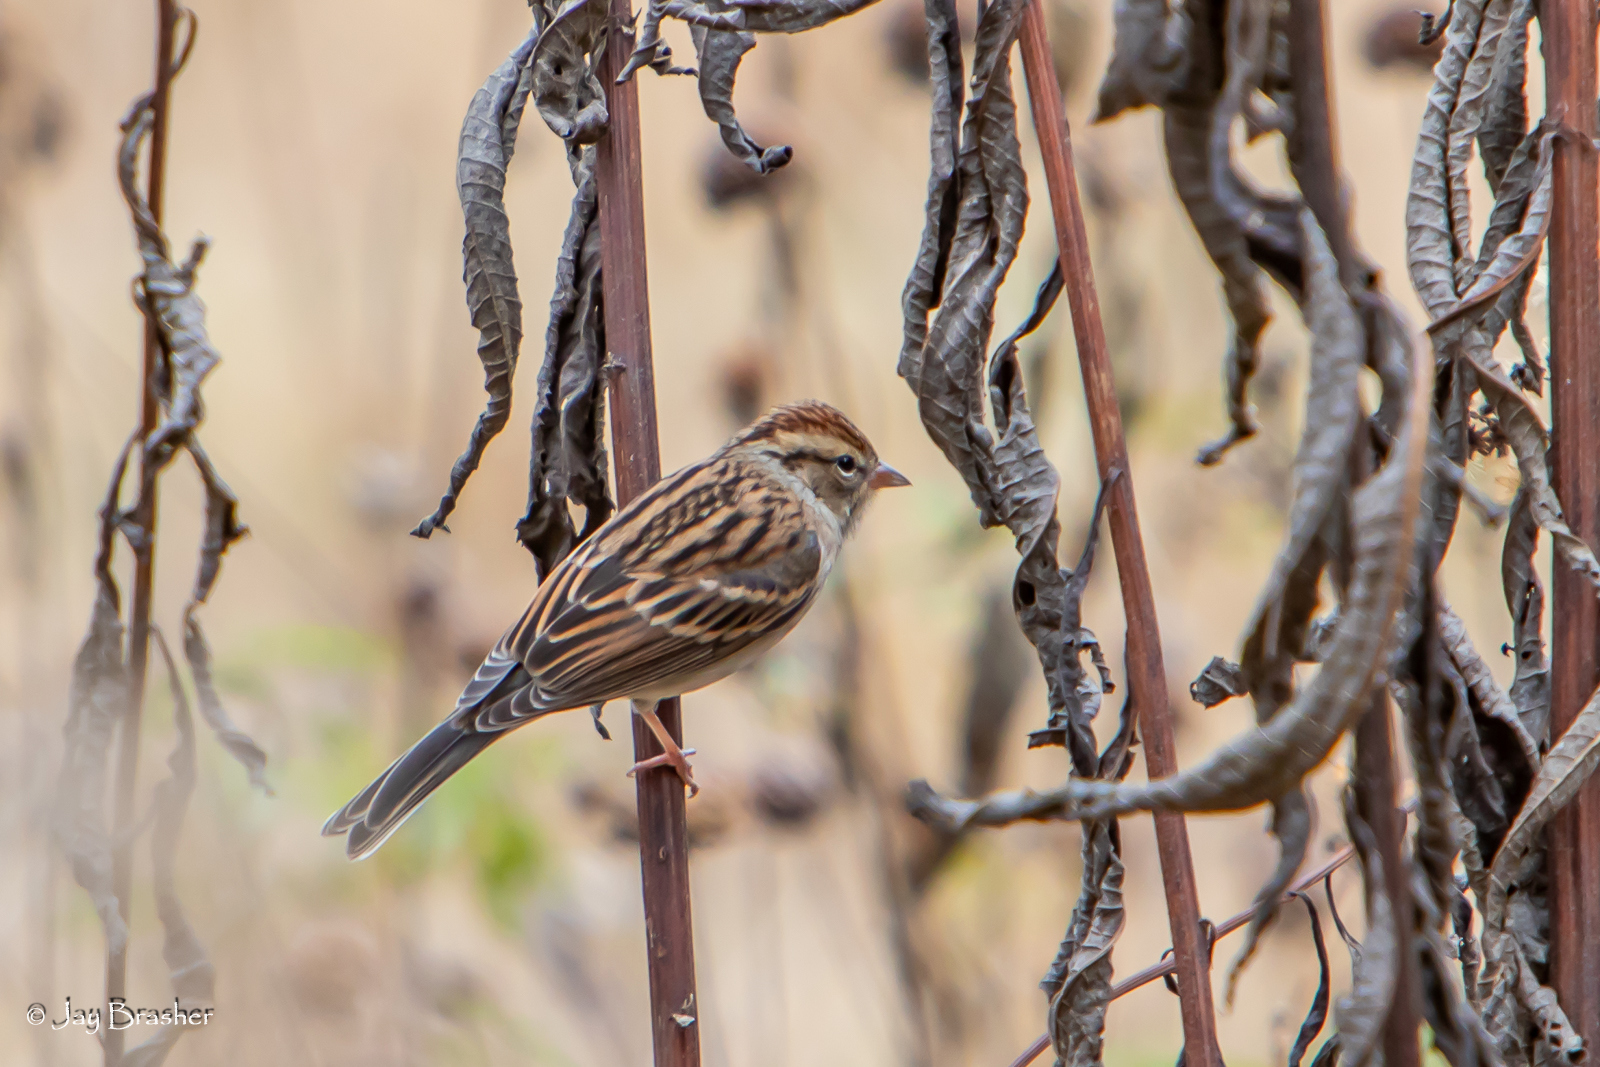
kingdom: Animalia
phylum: Chordata
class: Aves
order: Passeriformes
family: Passerellidae
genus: Spizella
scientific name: Spizella passerina
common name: Chipping sparrow
